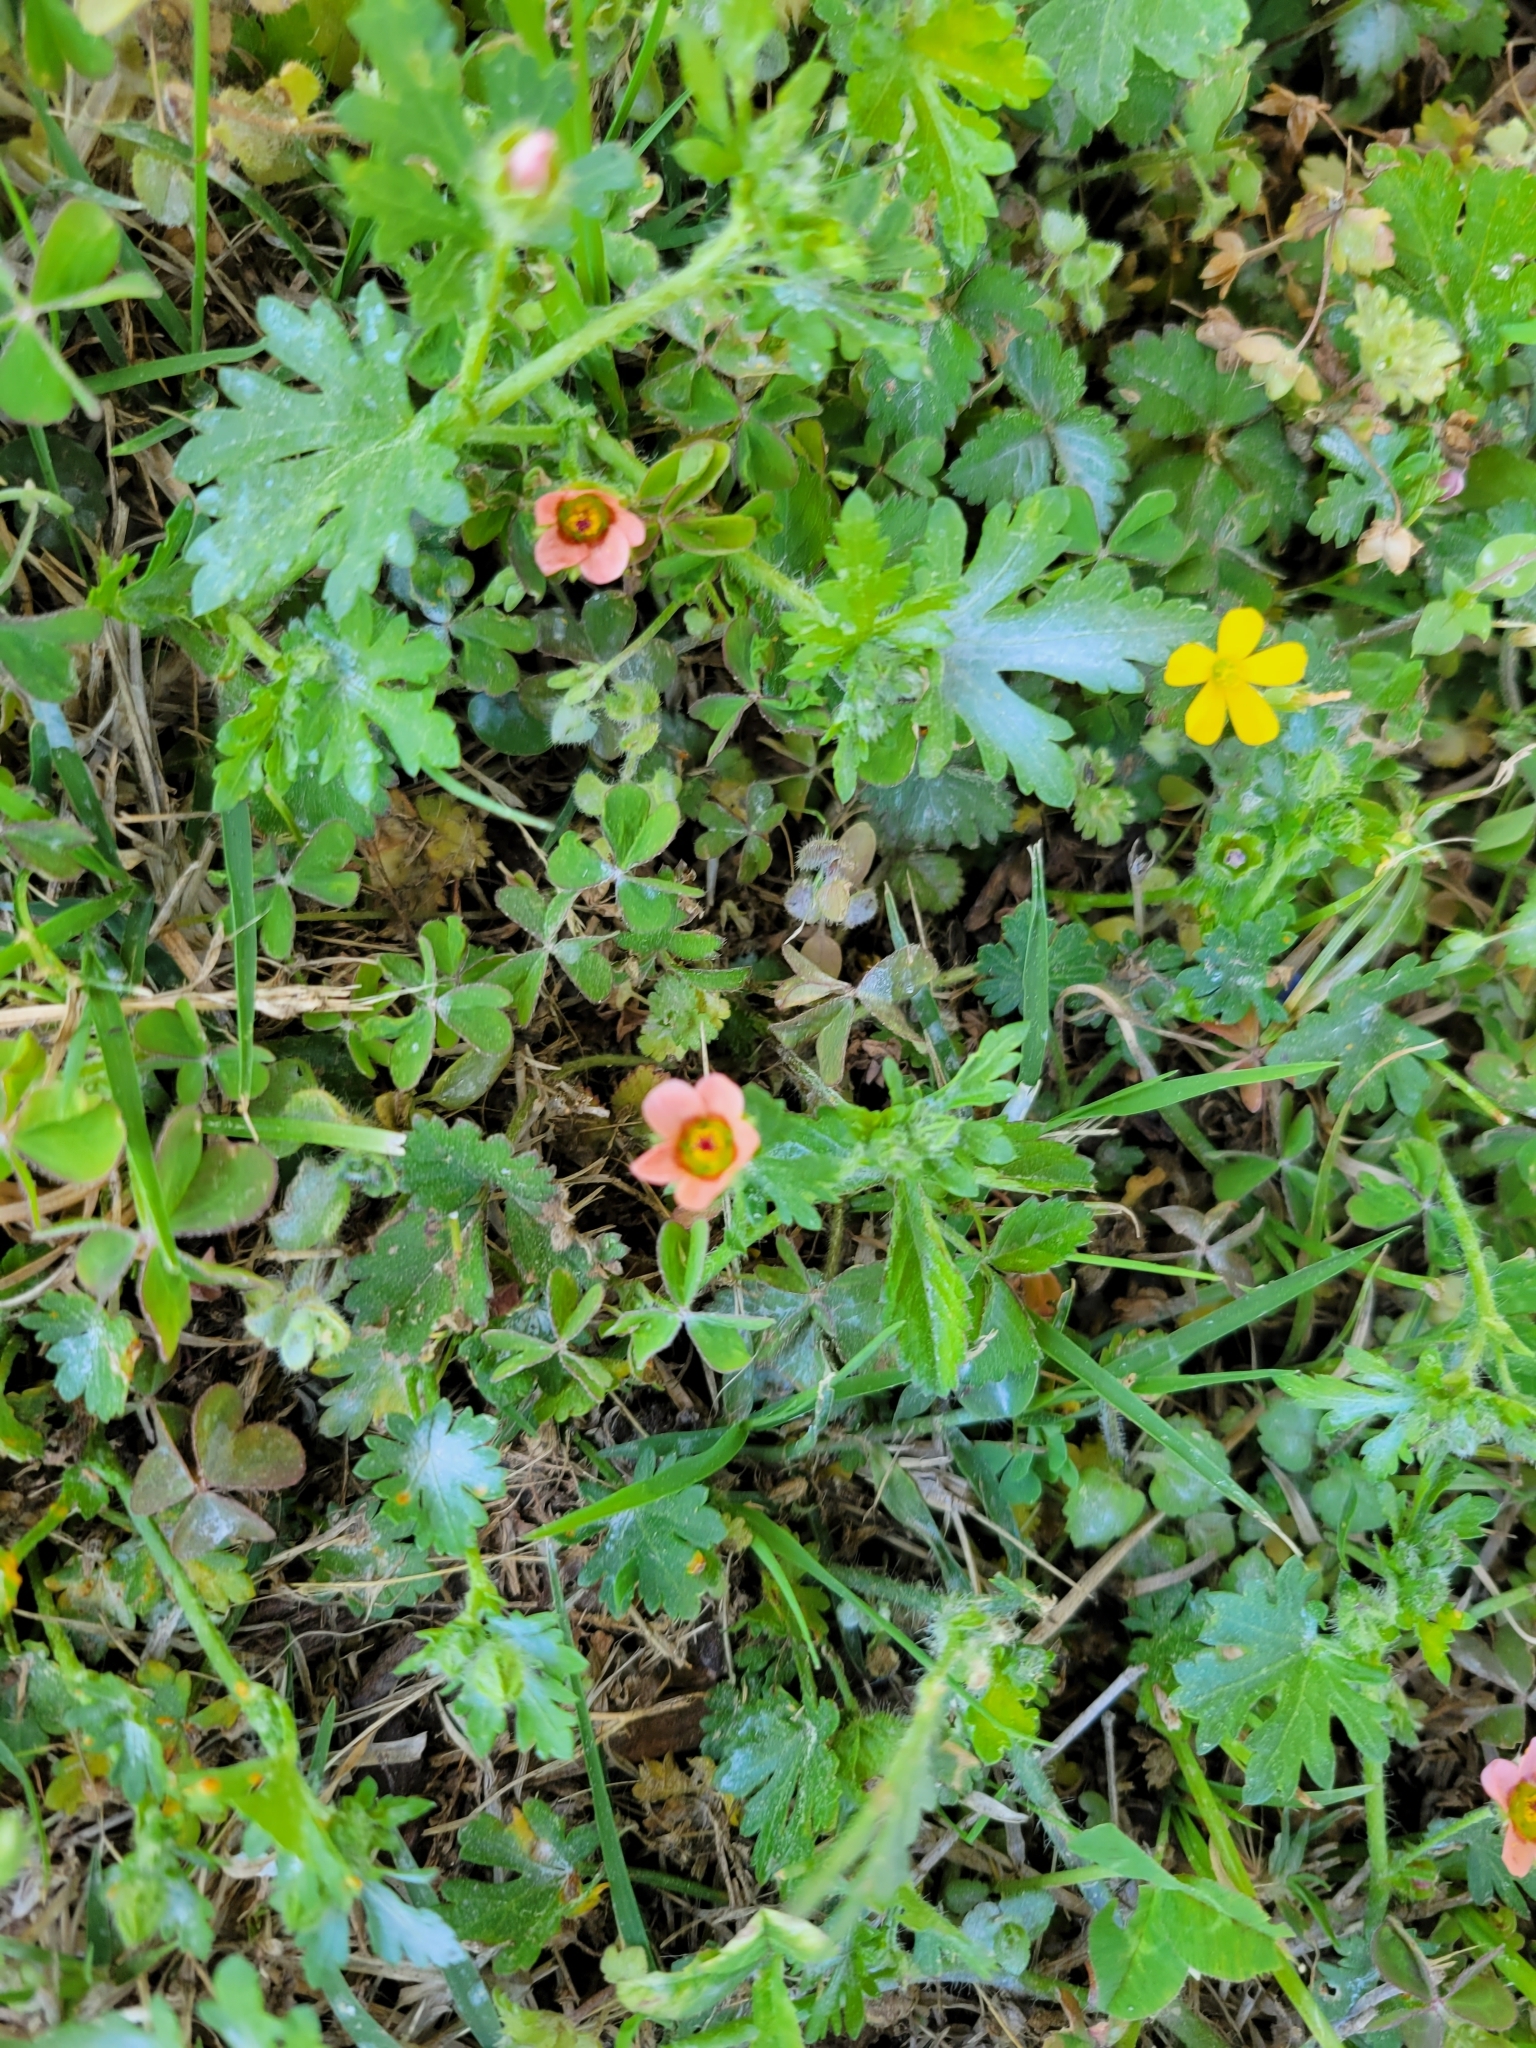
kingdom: Plantae
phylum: Tracheophyta
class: Magnoliopsida
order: Malvales
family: Malvaceae
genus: Modiola
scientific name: Modiola caroliniana
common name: Carolina bristlemallow
